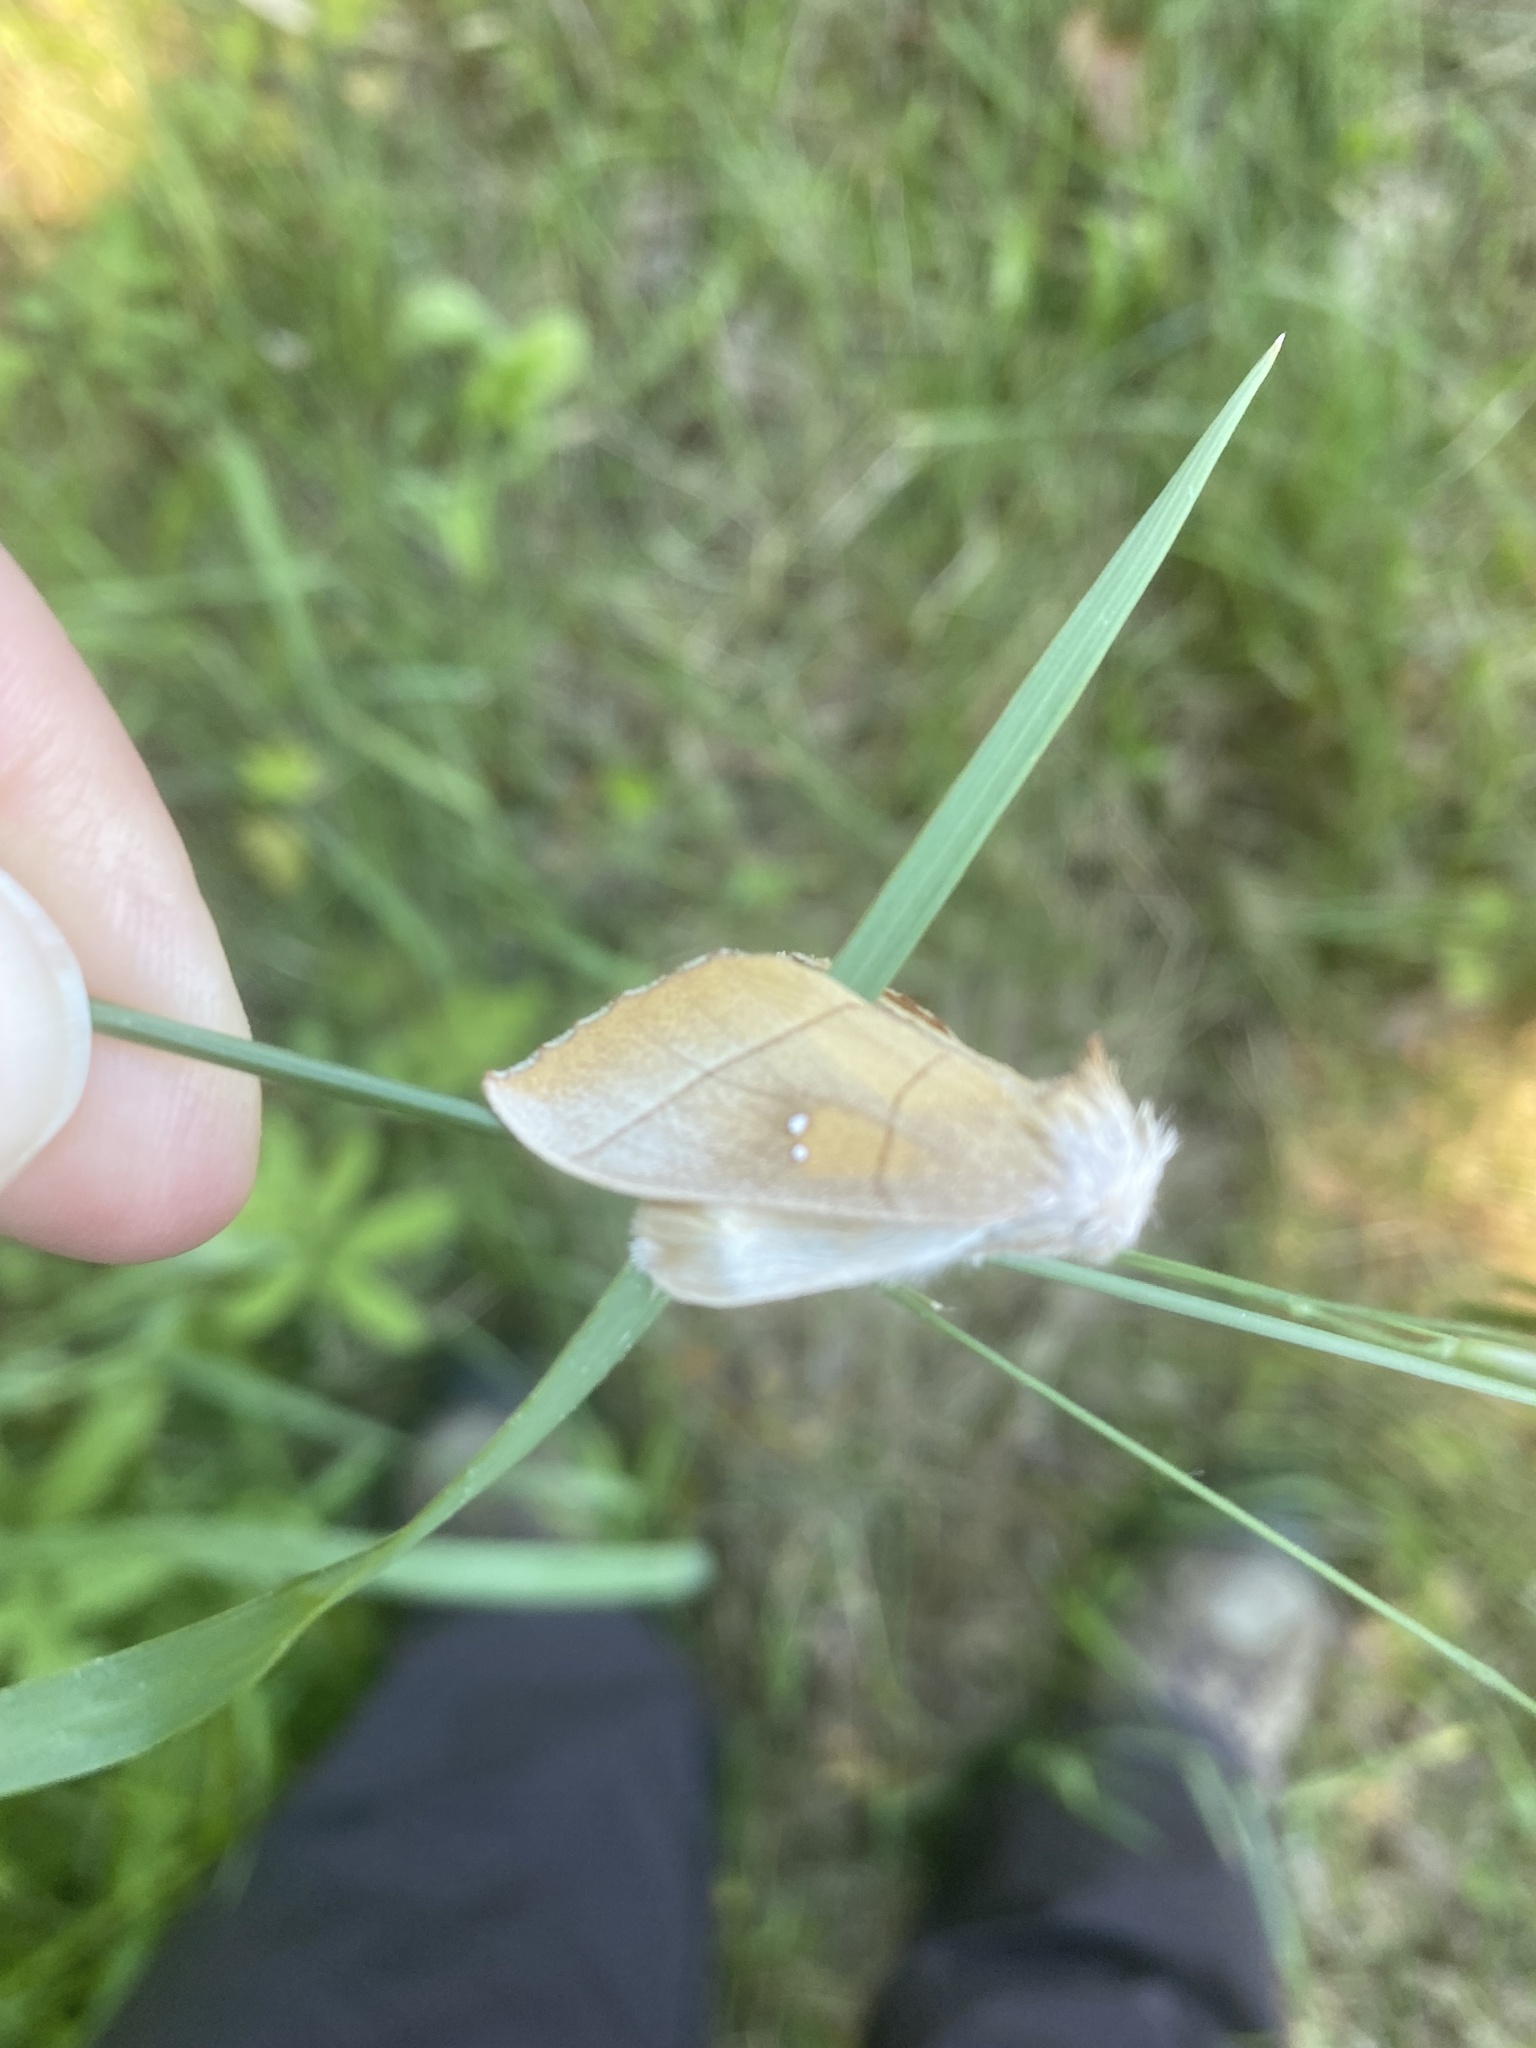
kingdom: Animalia
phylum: Arthropoda
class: Insecta
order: Lepidoptera
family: Notodontidae
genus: Nadata
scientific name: Nadata gibbosa
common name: White-dotted prominent
